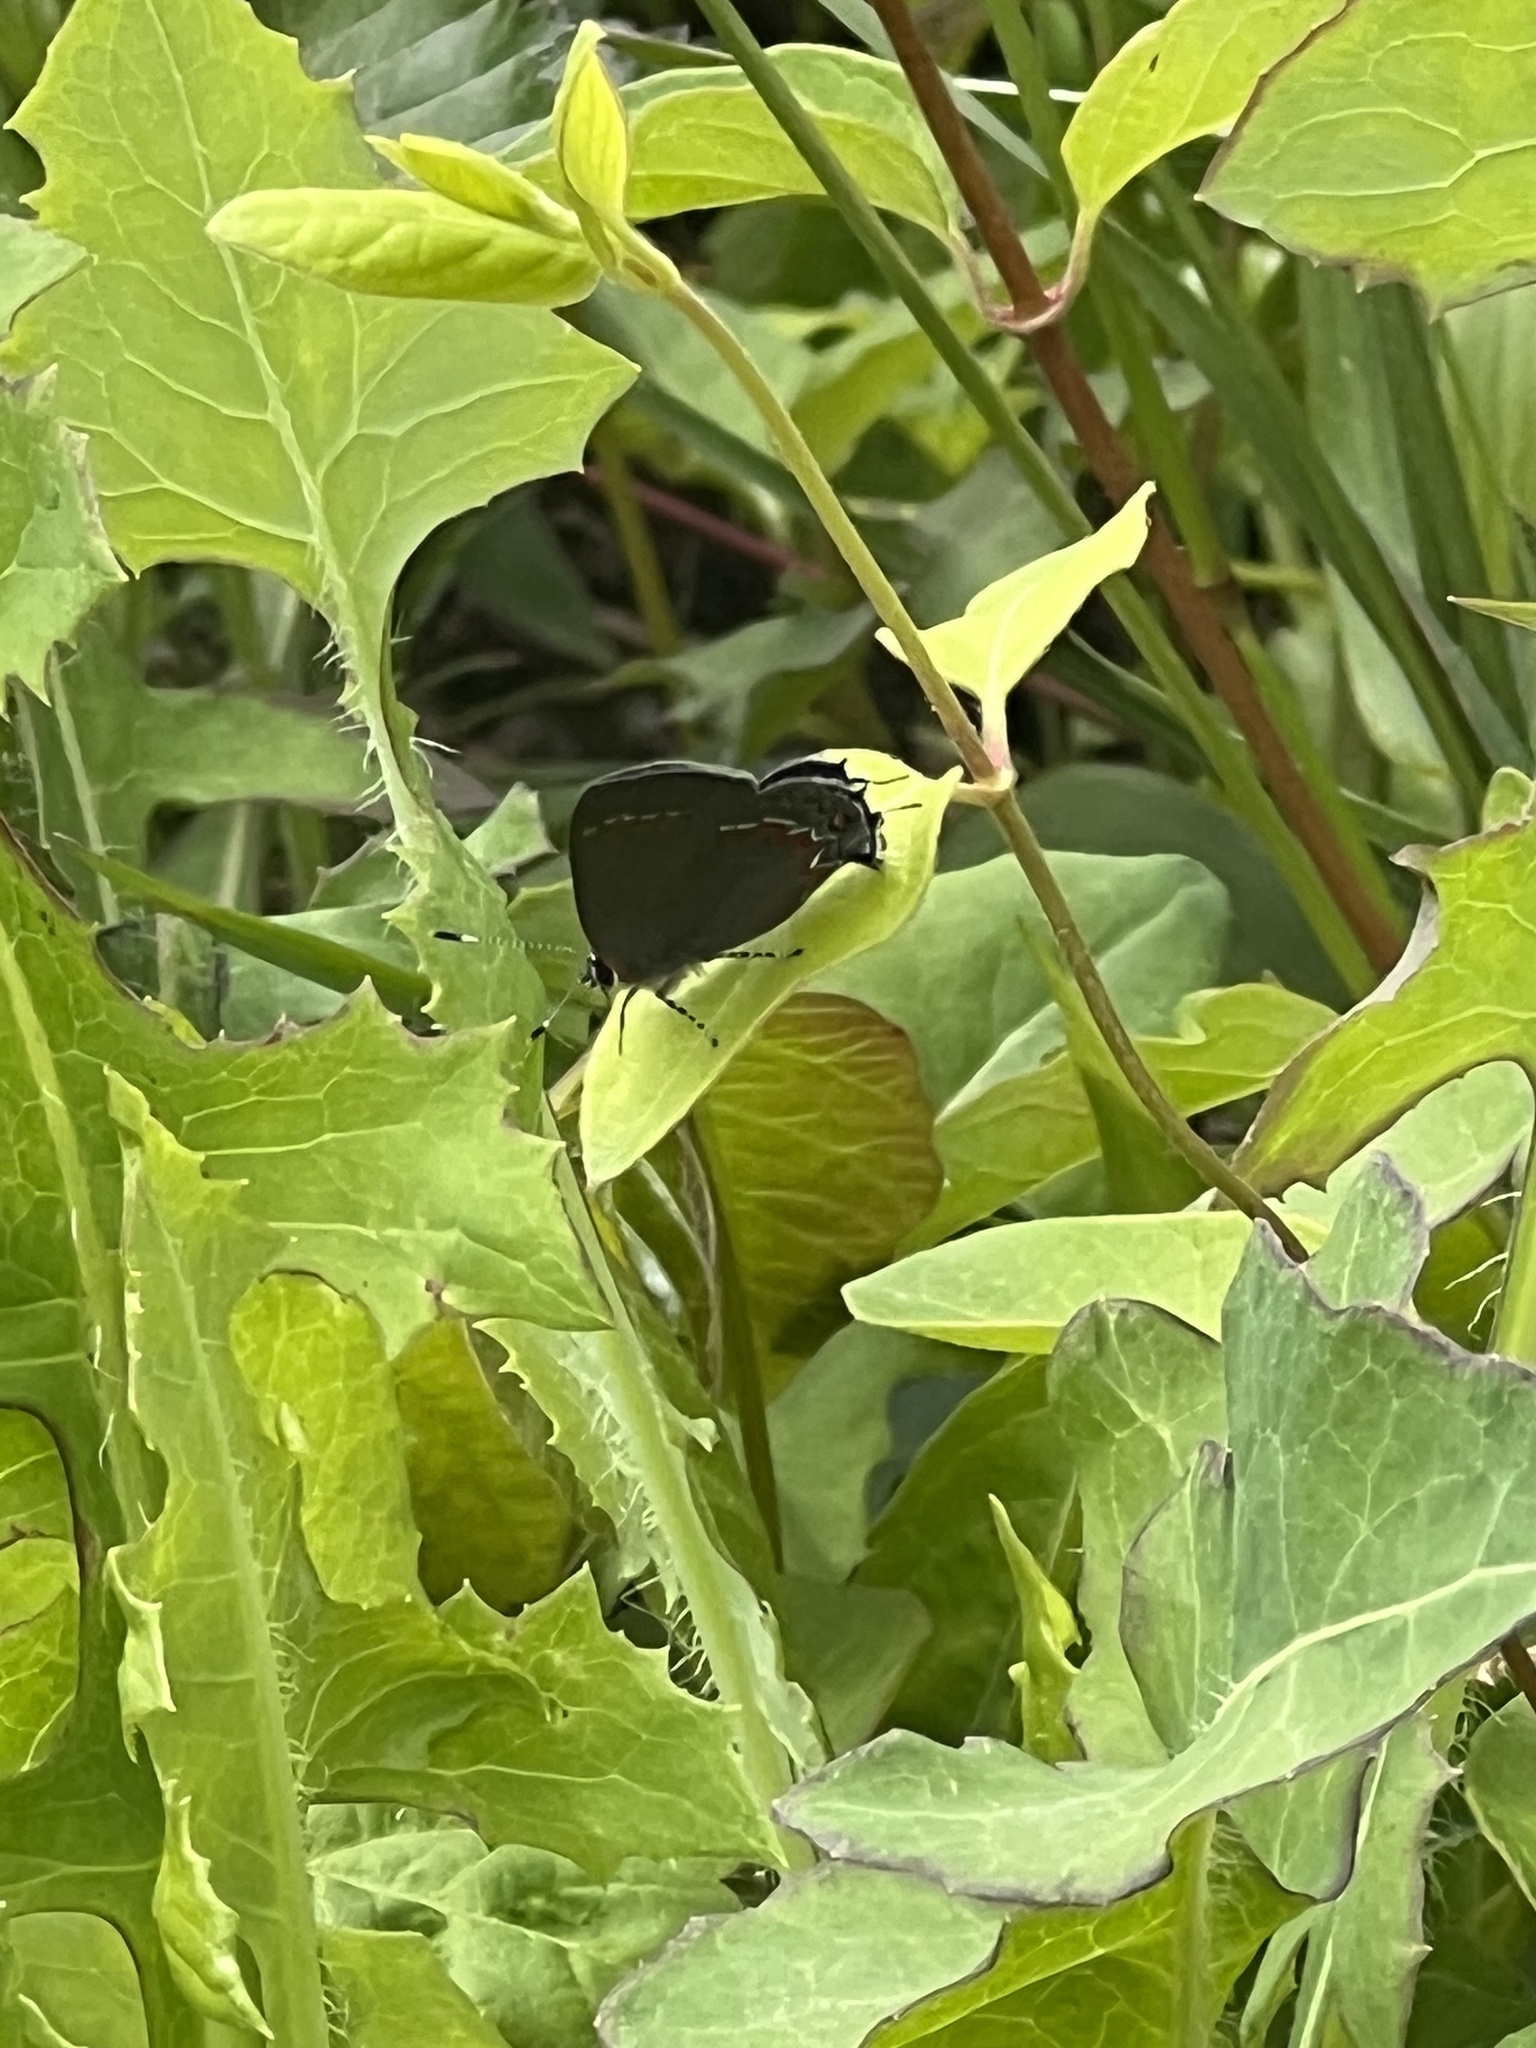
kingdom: Animalia
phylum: Arthropoda
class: Insecta
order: Lepidoptera
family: Lycaenidae
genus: Calycopis
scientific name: Calycopis cecrops
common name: Red-banded hairstreak
